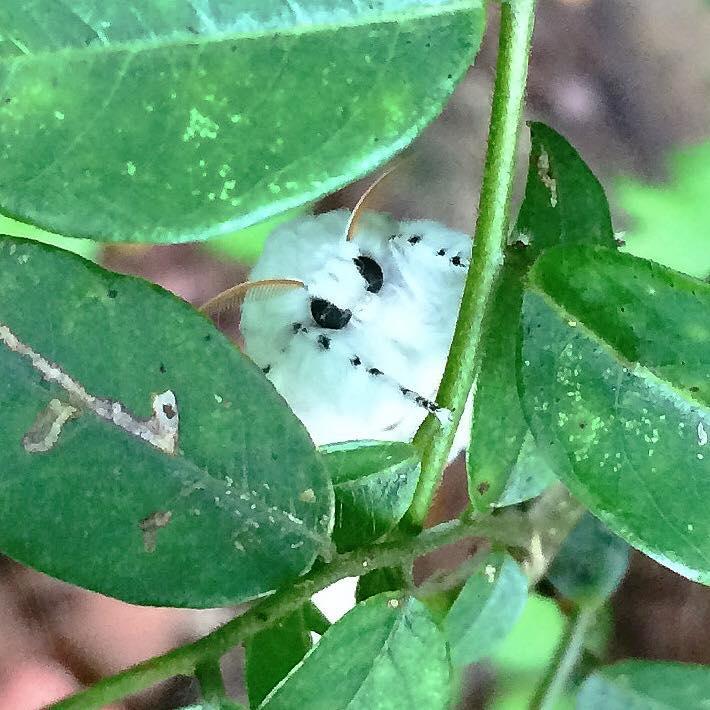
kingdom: Animalia
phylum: Arthropoda
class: Insecta
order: Lepidoptera
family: Erebidae
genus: Dasychira
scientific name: Dasychira georgiana
